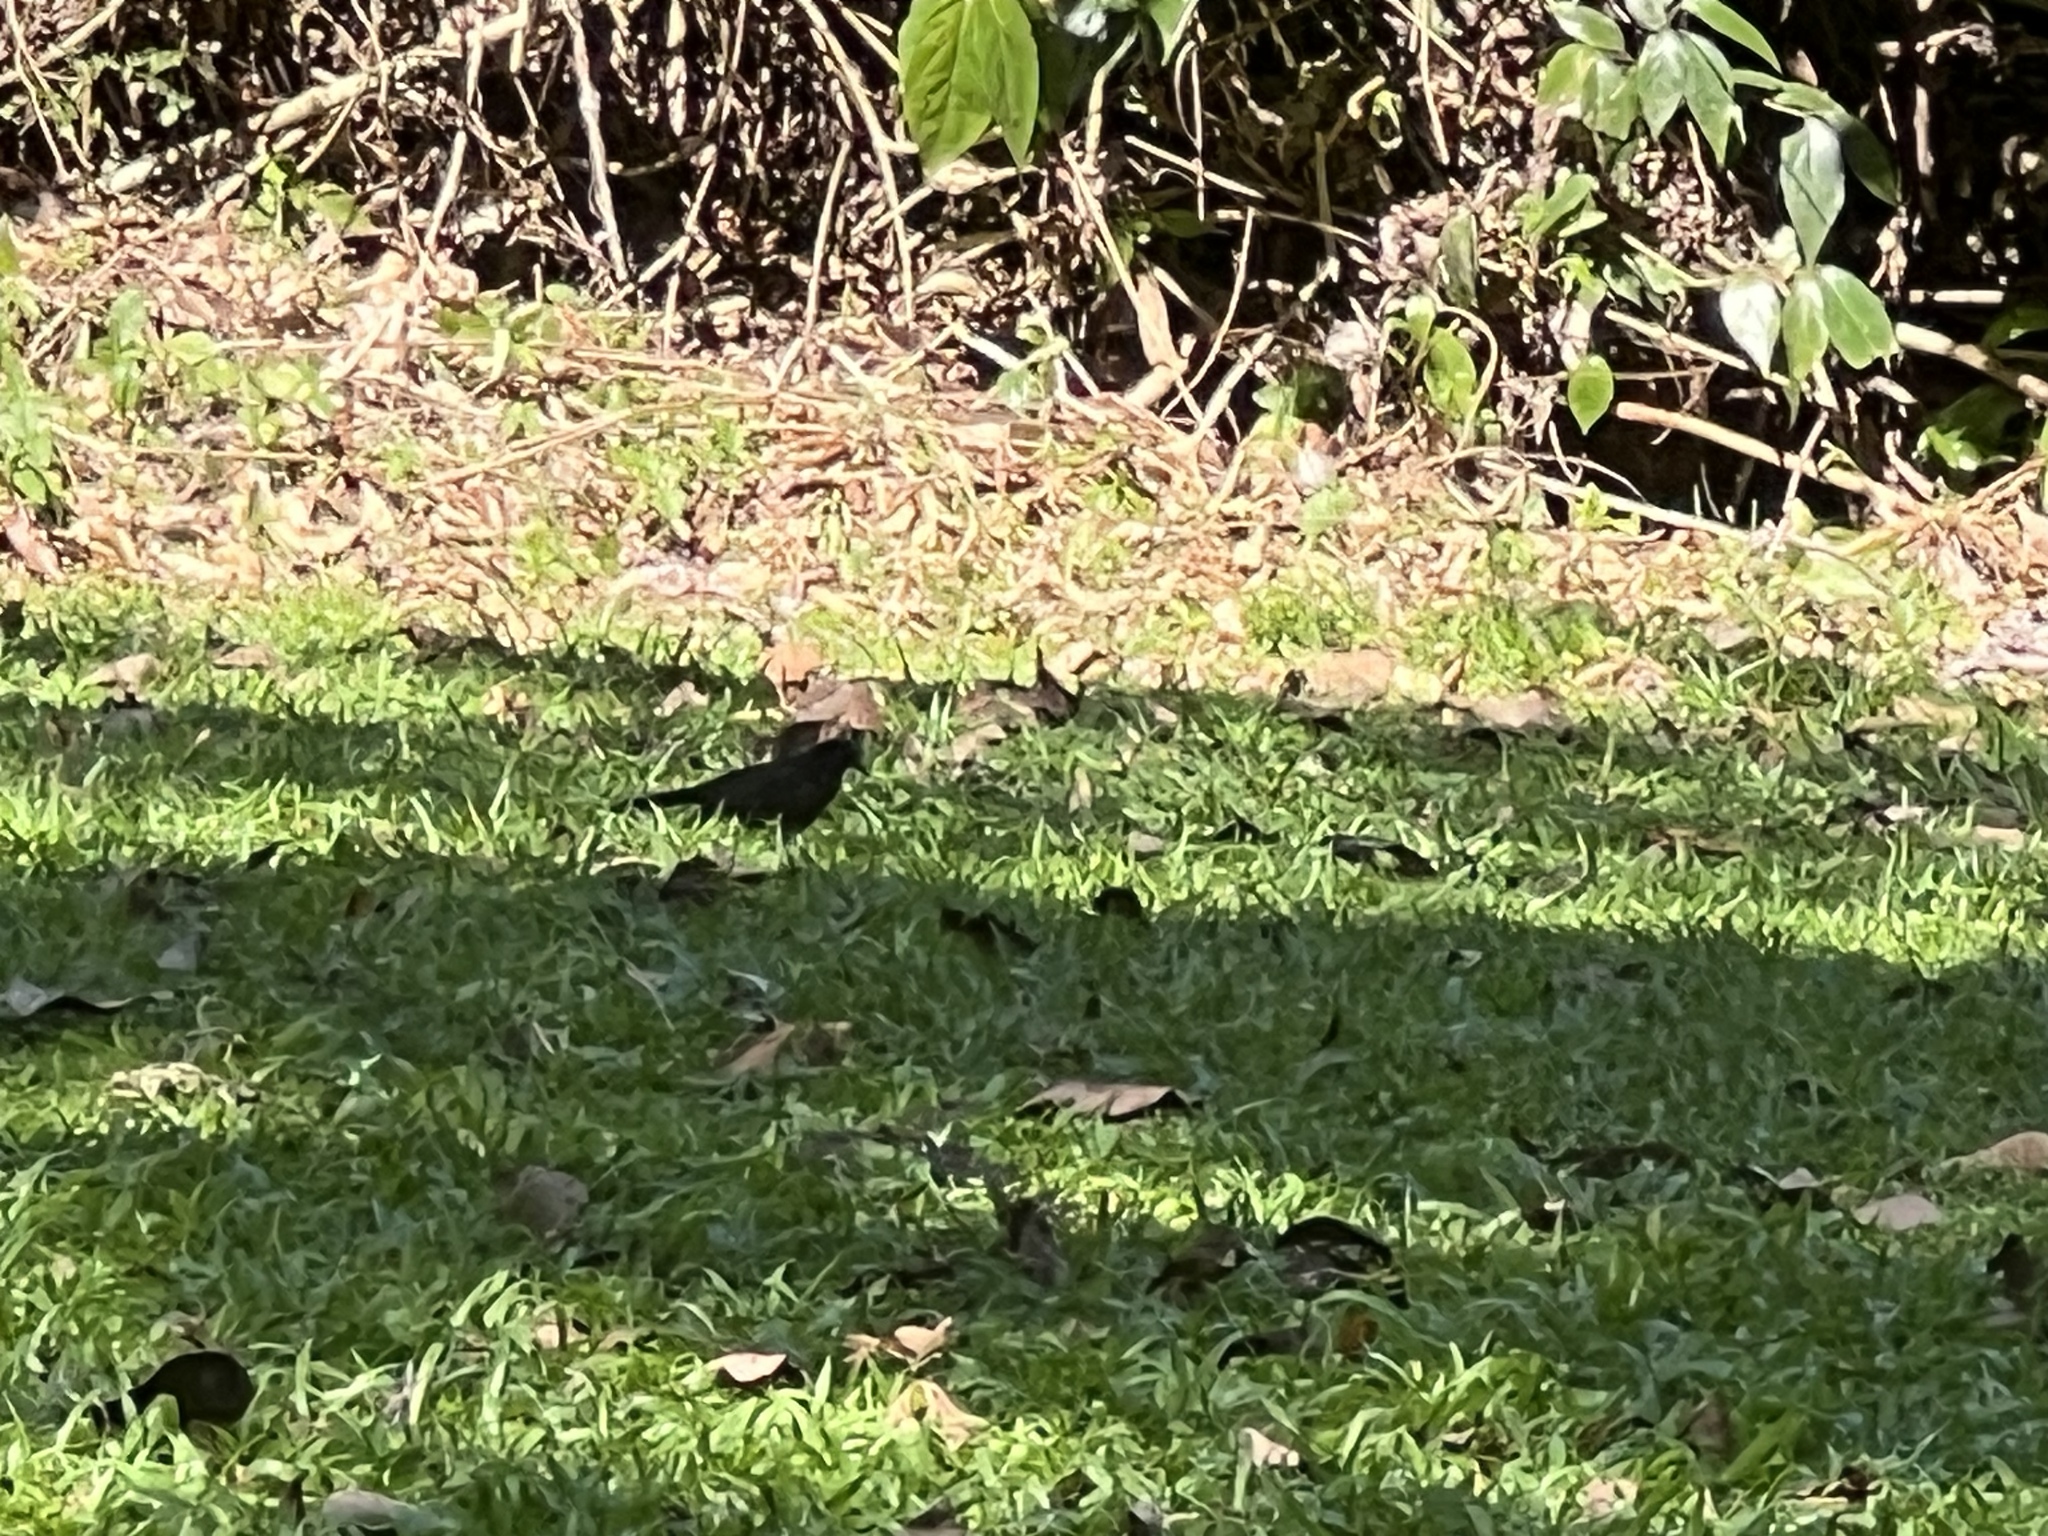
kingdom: Animalia
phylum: Chordata
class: Aves
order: Passeriformes
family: Icteridae
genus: Dives
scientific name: Dives dives
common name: Melodious blackbird
